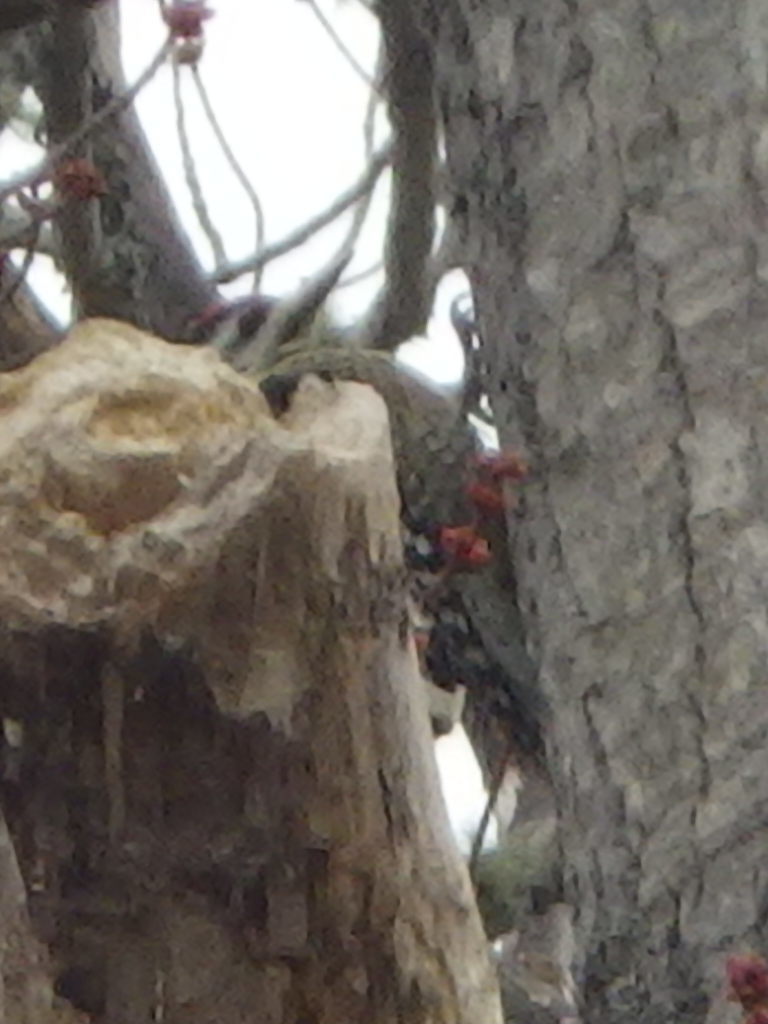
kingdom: Animalia
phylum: Chordata
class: Aves
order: Piciformes
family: Picidae
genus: Sphyrapicus
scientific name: Sphyrapicus varius
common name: Yellow-bellied sapsucker
